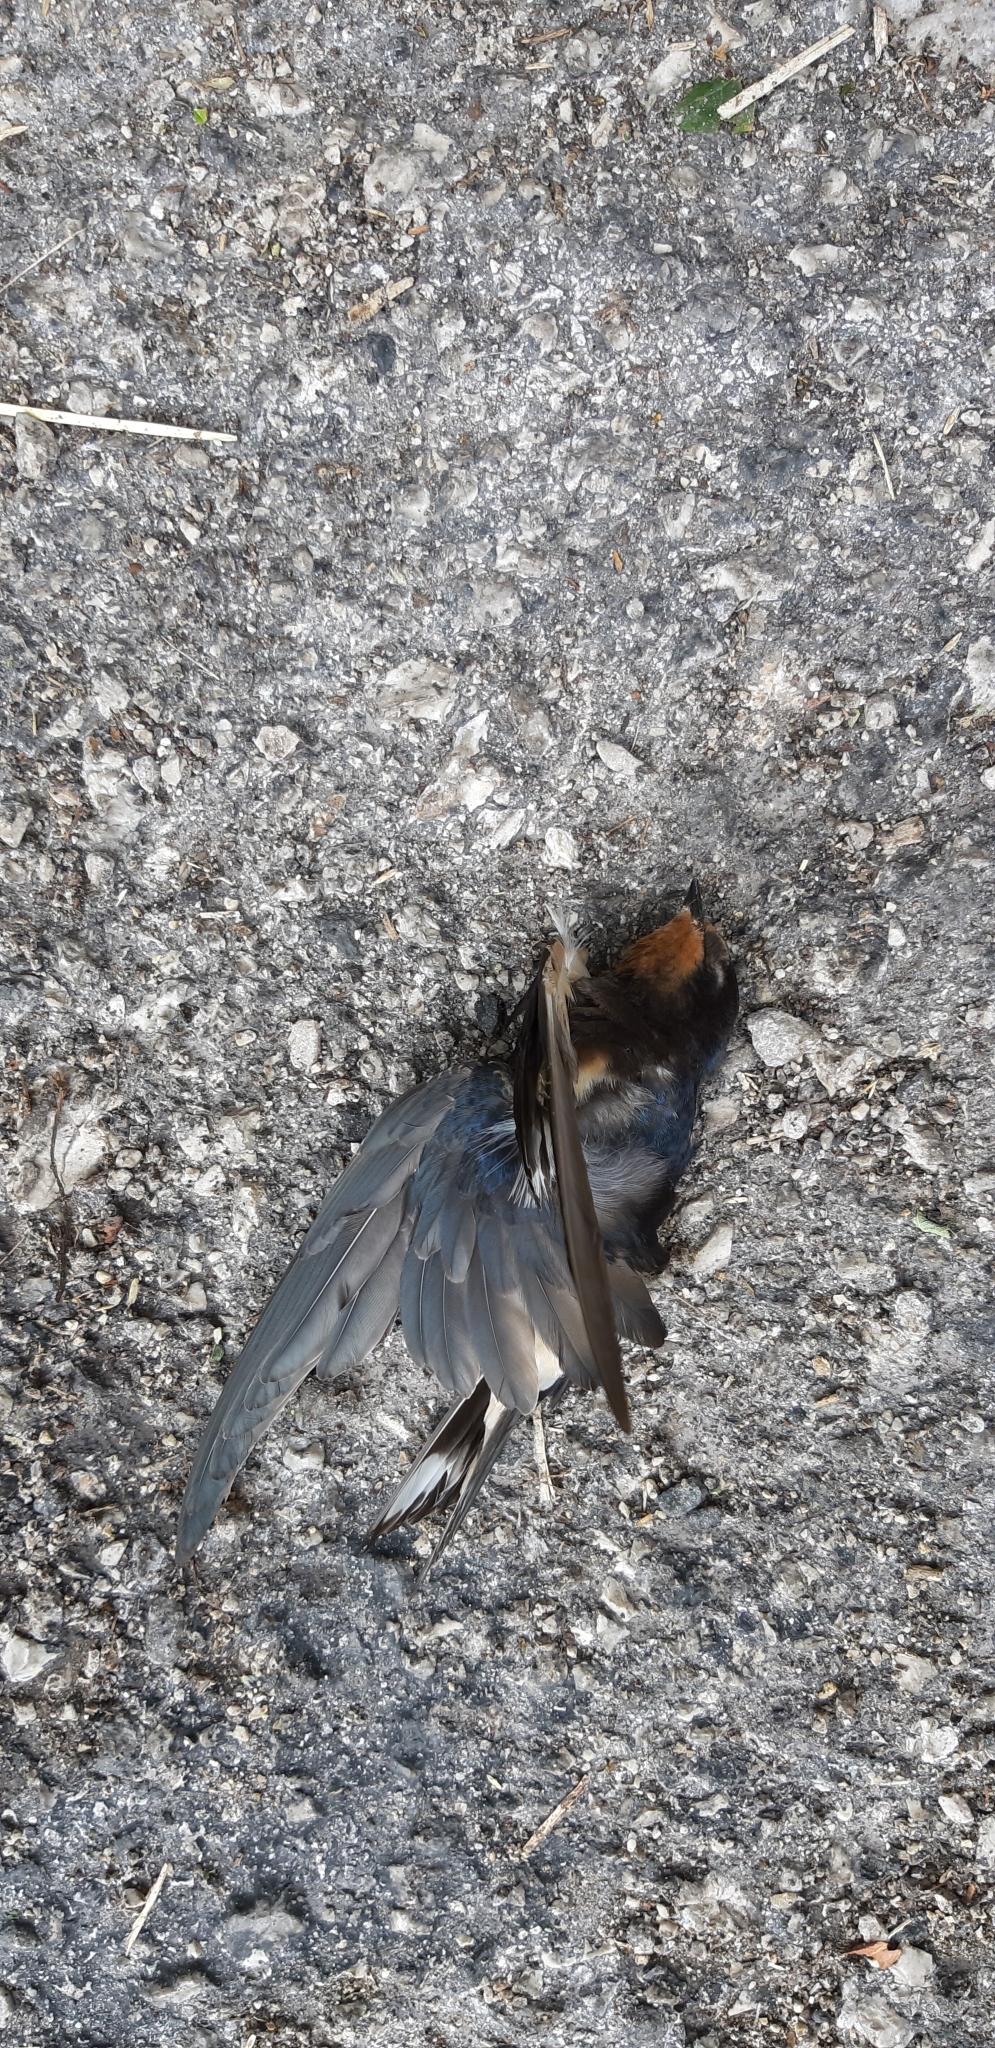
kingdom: Animalia
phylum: Chordata
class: Aves
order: Passeriformes
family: Hirundinidae
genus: Hirundo
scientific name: Hirundo rustica
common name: Barn swallow
